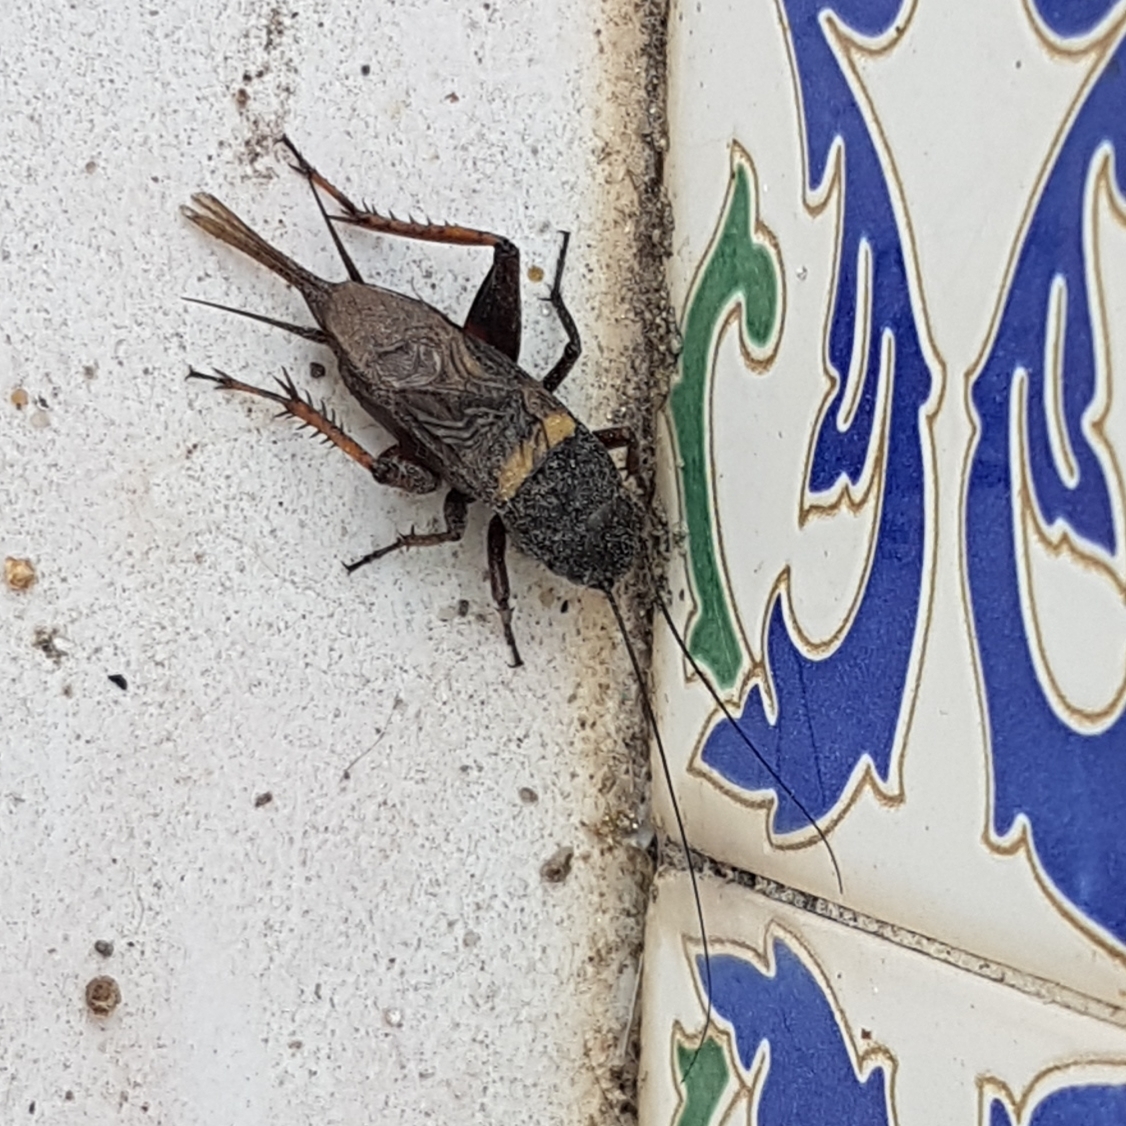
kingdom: Animalia
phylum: Arthropoda
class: Insecta
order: Orthoptera
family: Gryllidae
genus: Gryllus
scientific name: Gryllus bimaculatus
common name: Two-spotted cricket
